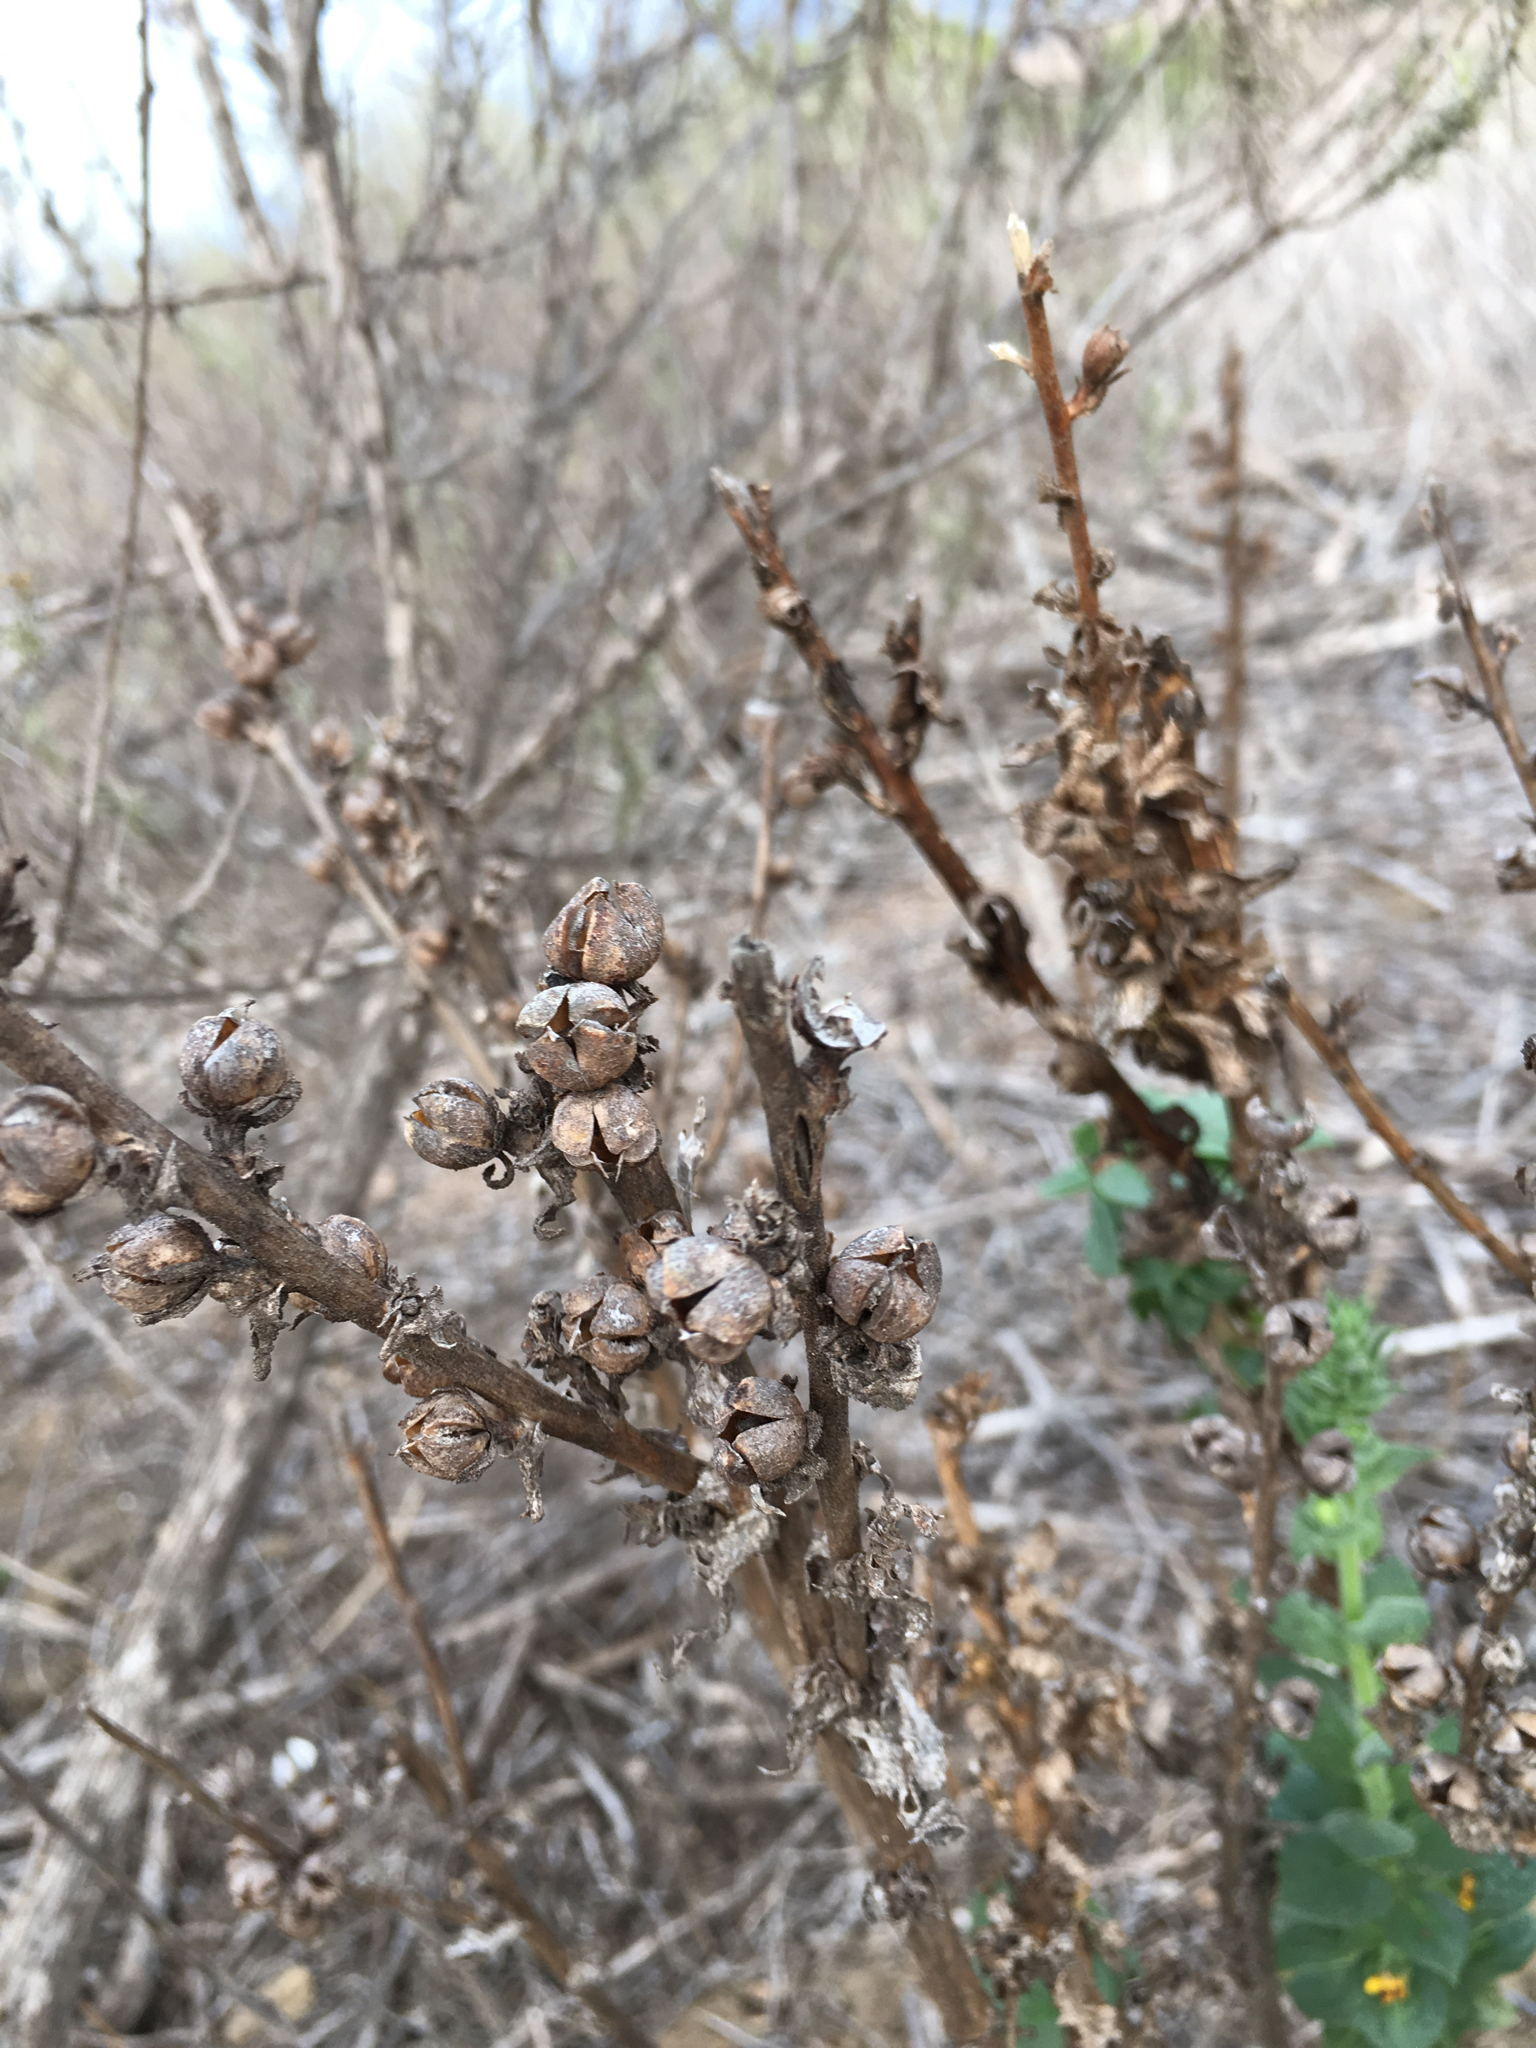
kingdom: Plantae
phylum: Tracheophyta
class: Magnoliopsida
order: Lamiales
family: Scrophulariaceae
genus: Verbascum
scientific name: Verbascum virgatum
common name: Twiggy mullein
